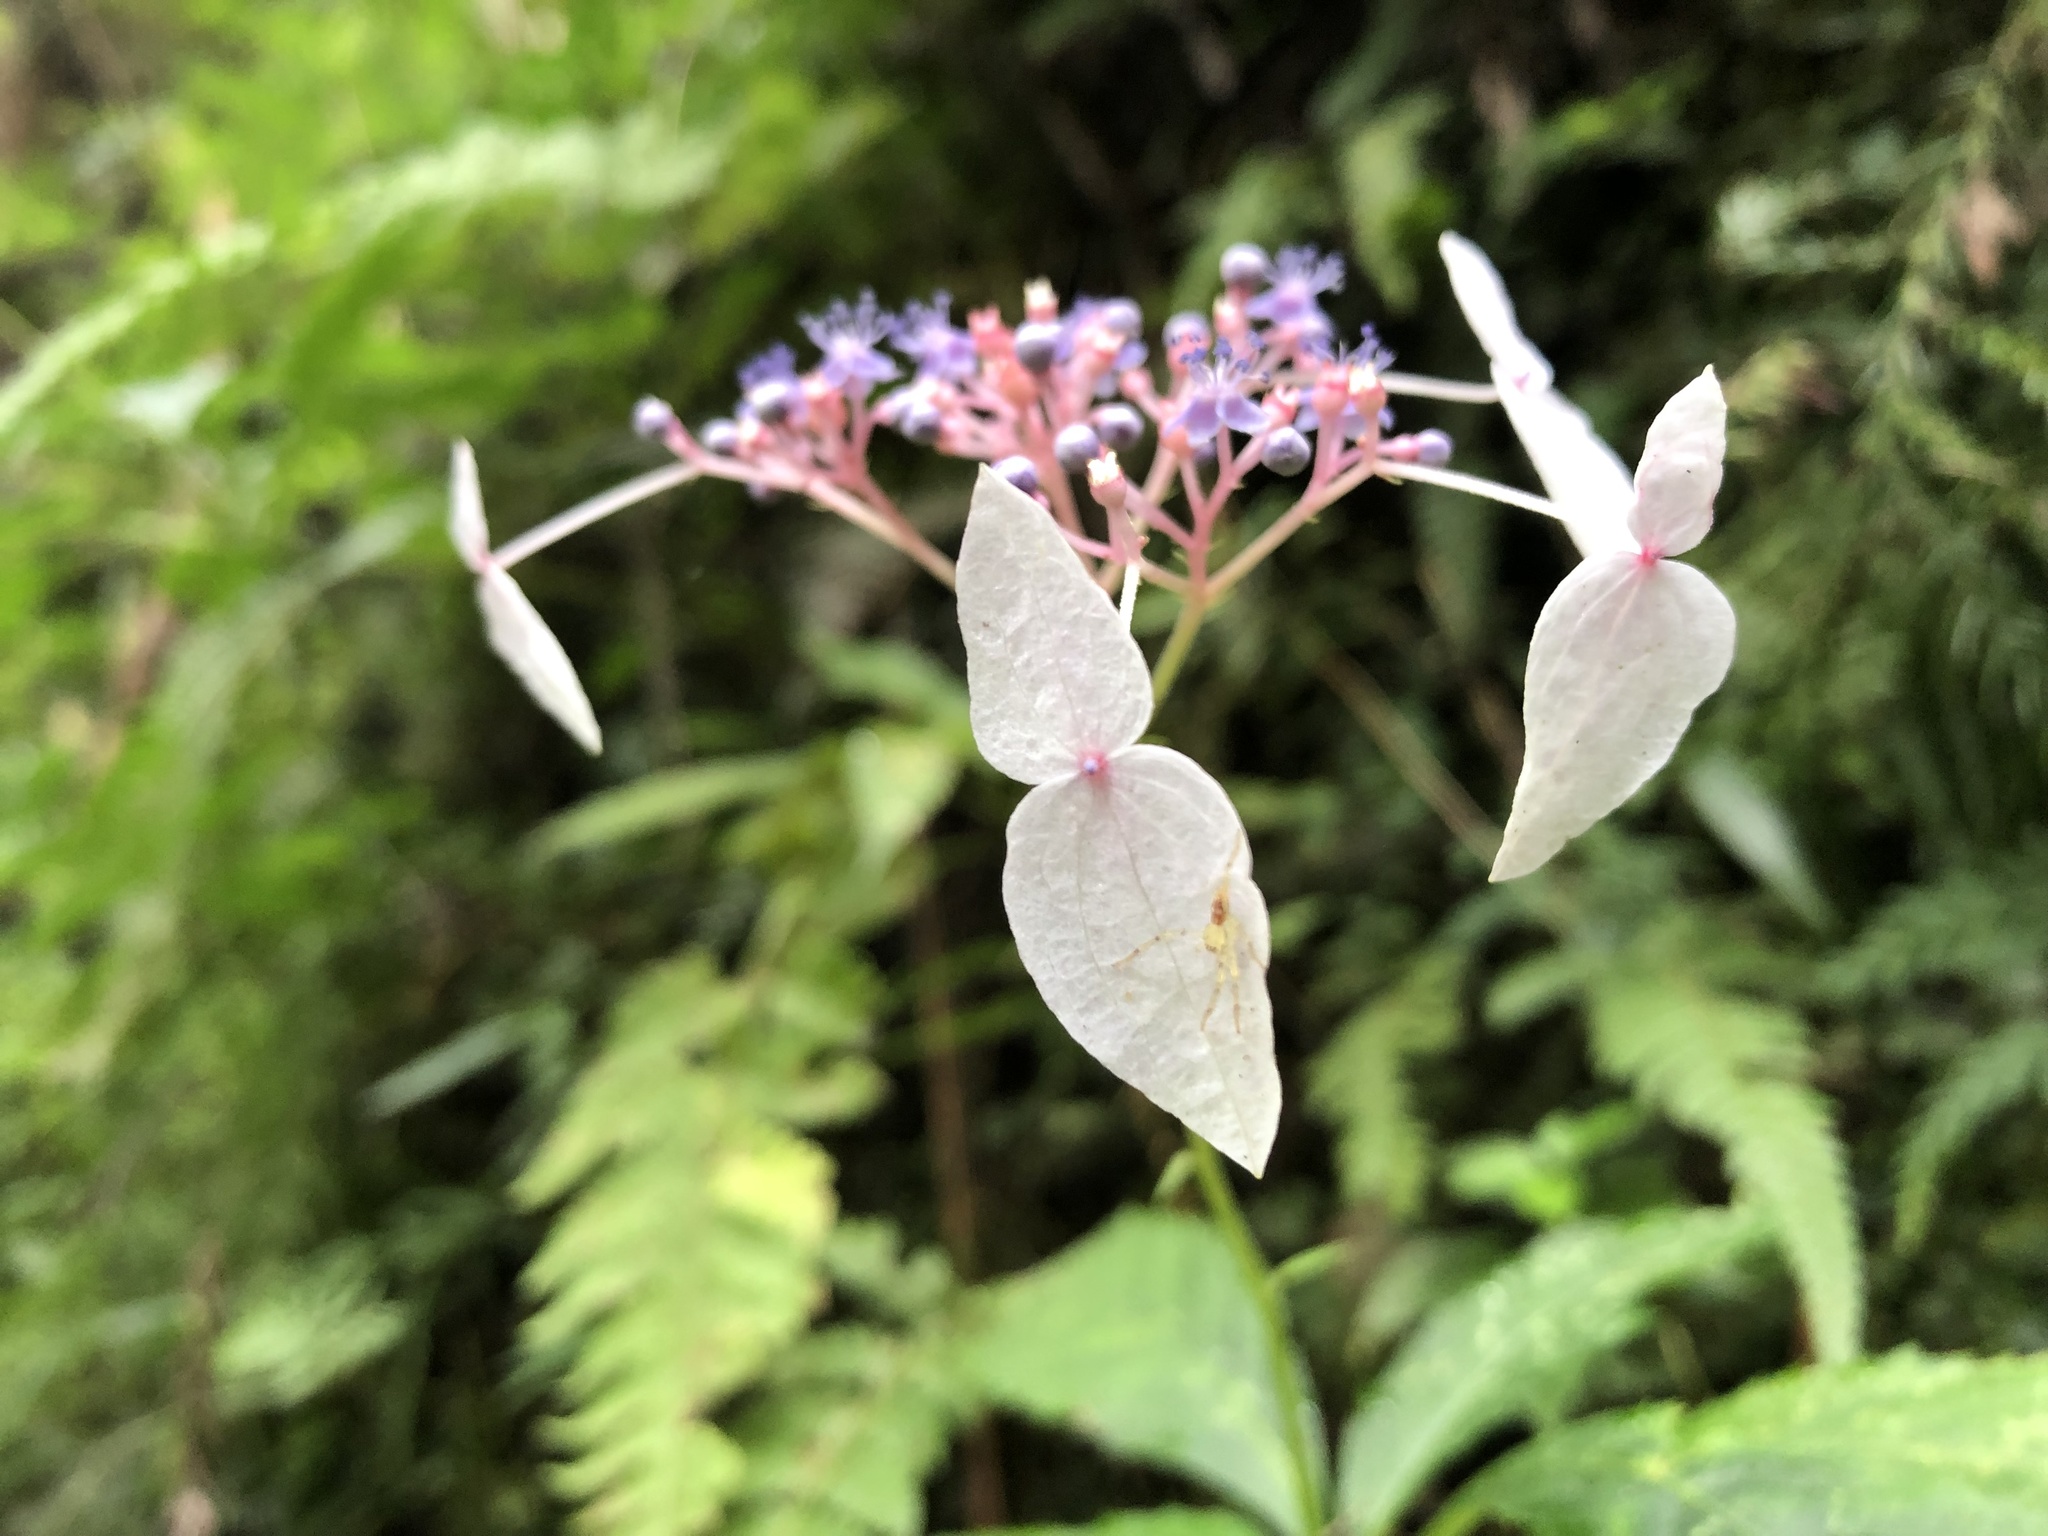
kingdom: Plantae
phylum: Tracheophyta
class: Magnoliopsida
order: Cornales
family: Hydrangeaceae
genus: Hydrangea
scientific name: Hydrangea densifolia
